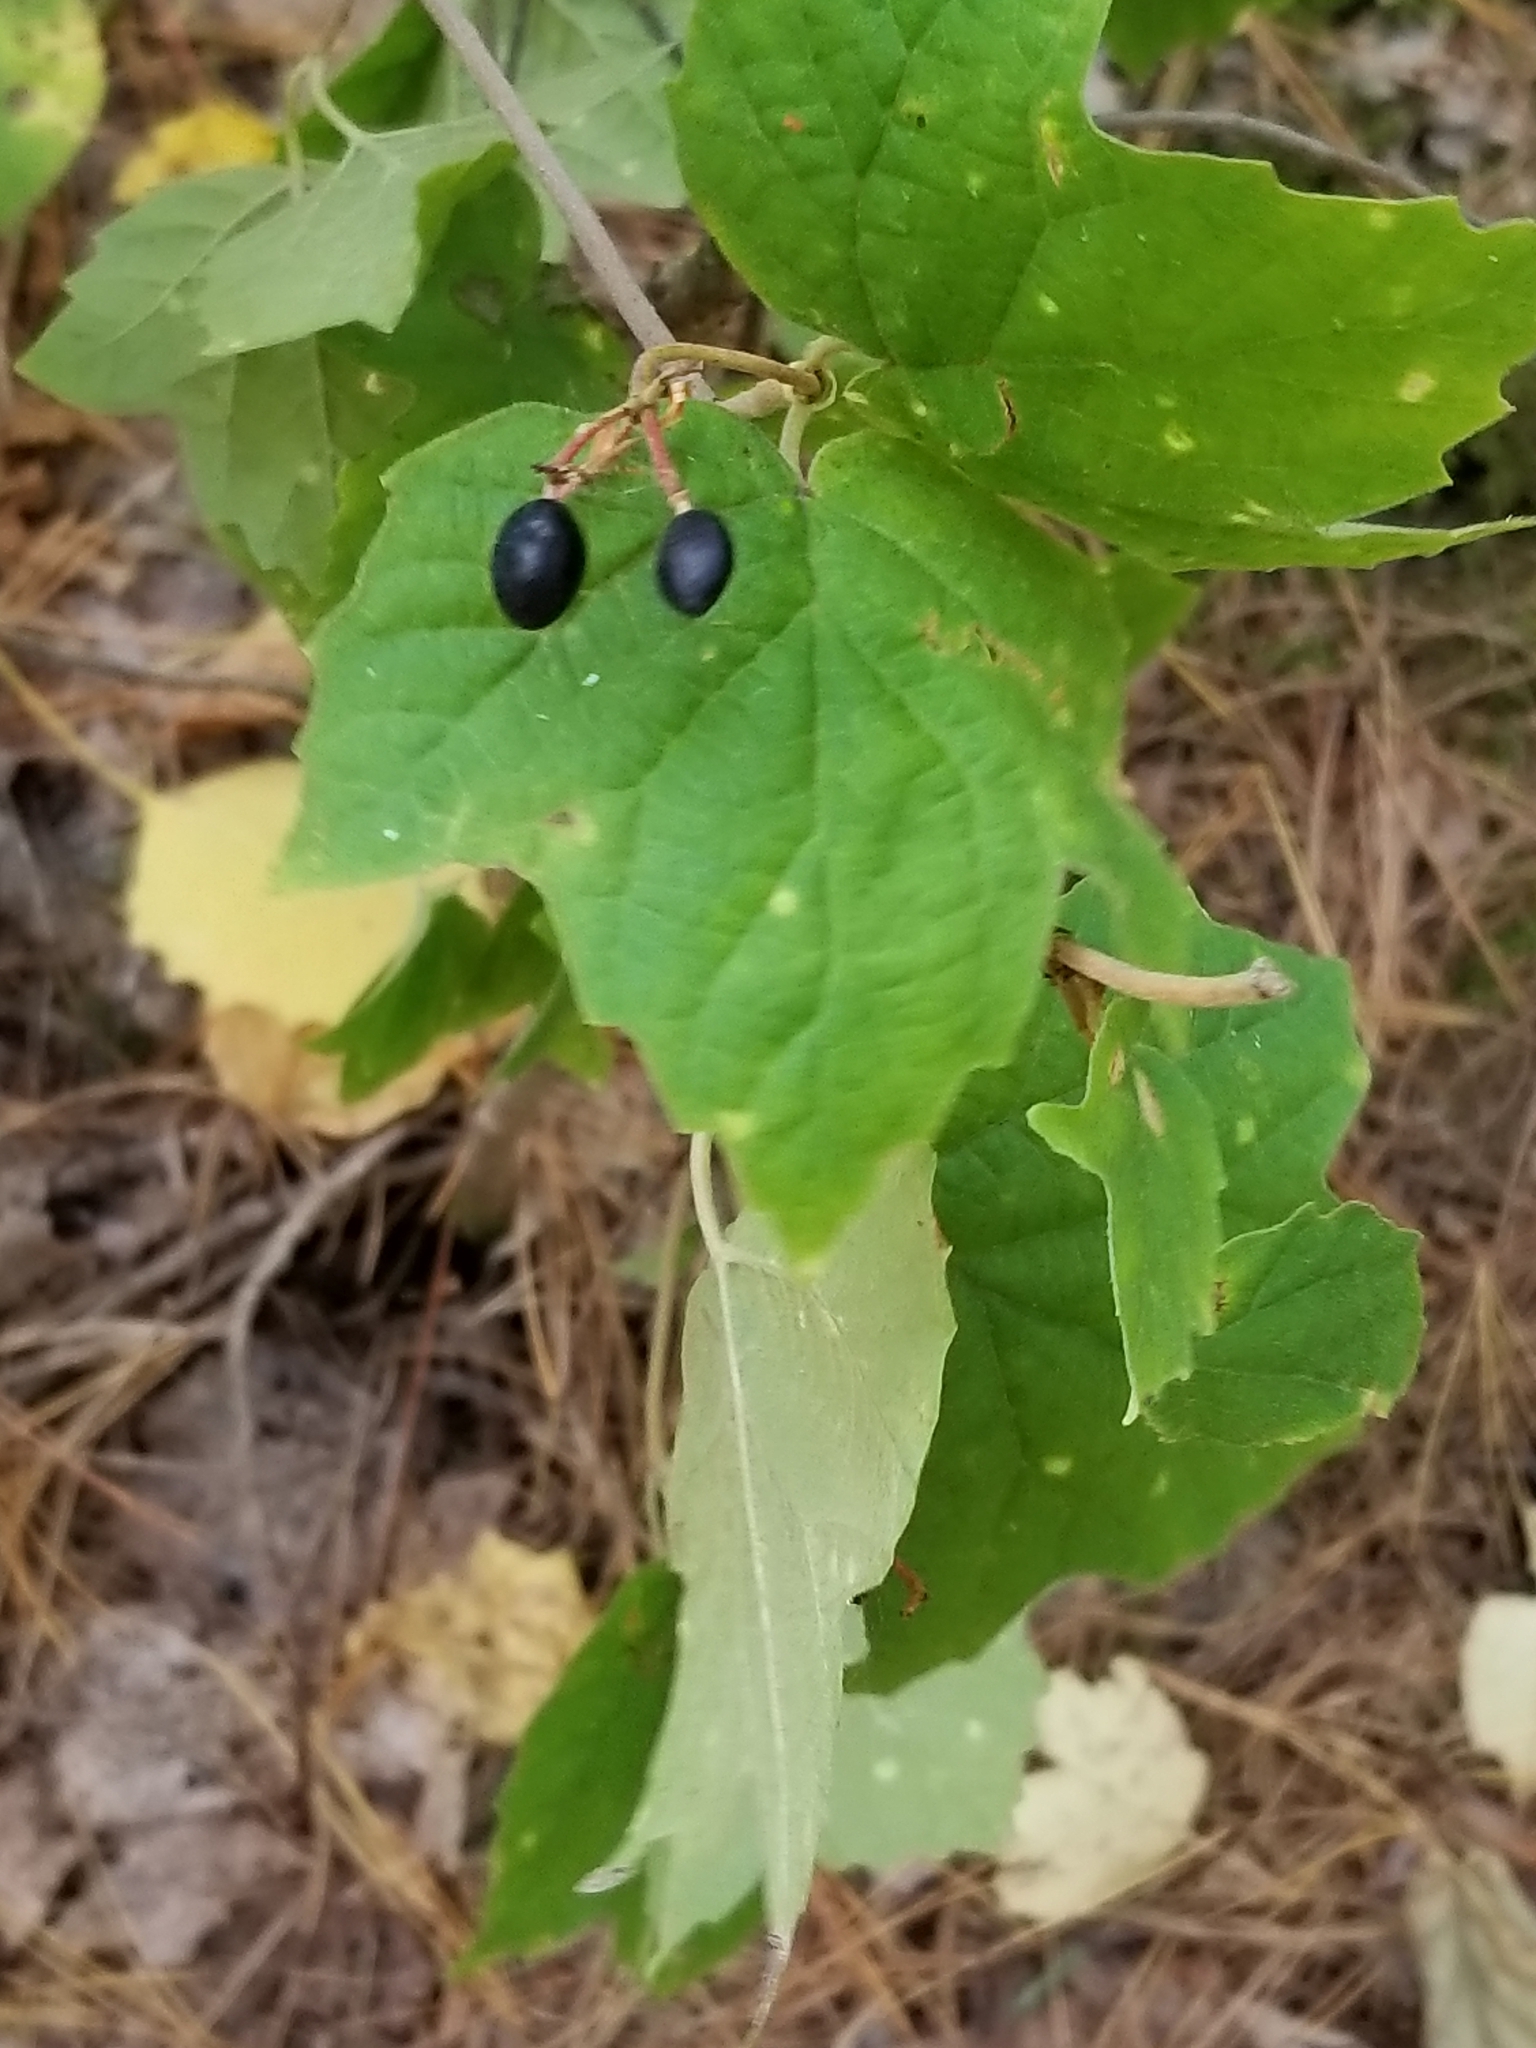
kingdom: Plantae
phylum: Tracheophyta
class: Magnoliopsida
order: Dipsacales
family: Viburnaceae
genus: Viburnum
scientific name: Viburnum acerifolium
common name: Dockmackie
